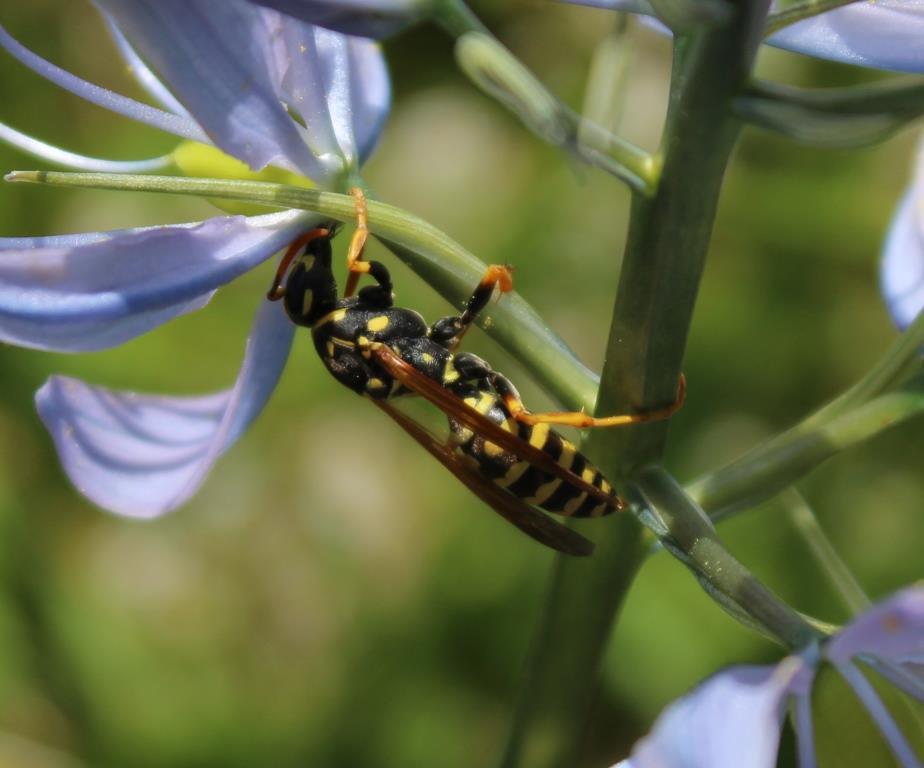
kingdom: Animalia
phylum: Arthropoda
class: Insecta
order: Hymenoptera
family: Eumenidae
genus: Polistes
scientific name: Polistes dominula
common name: Paper wasp
